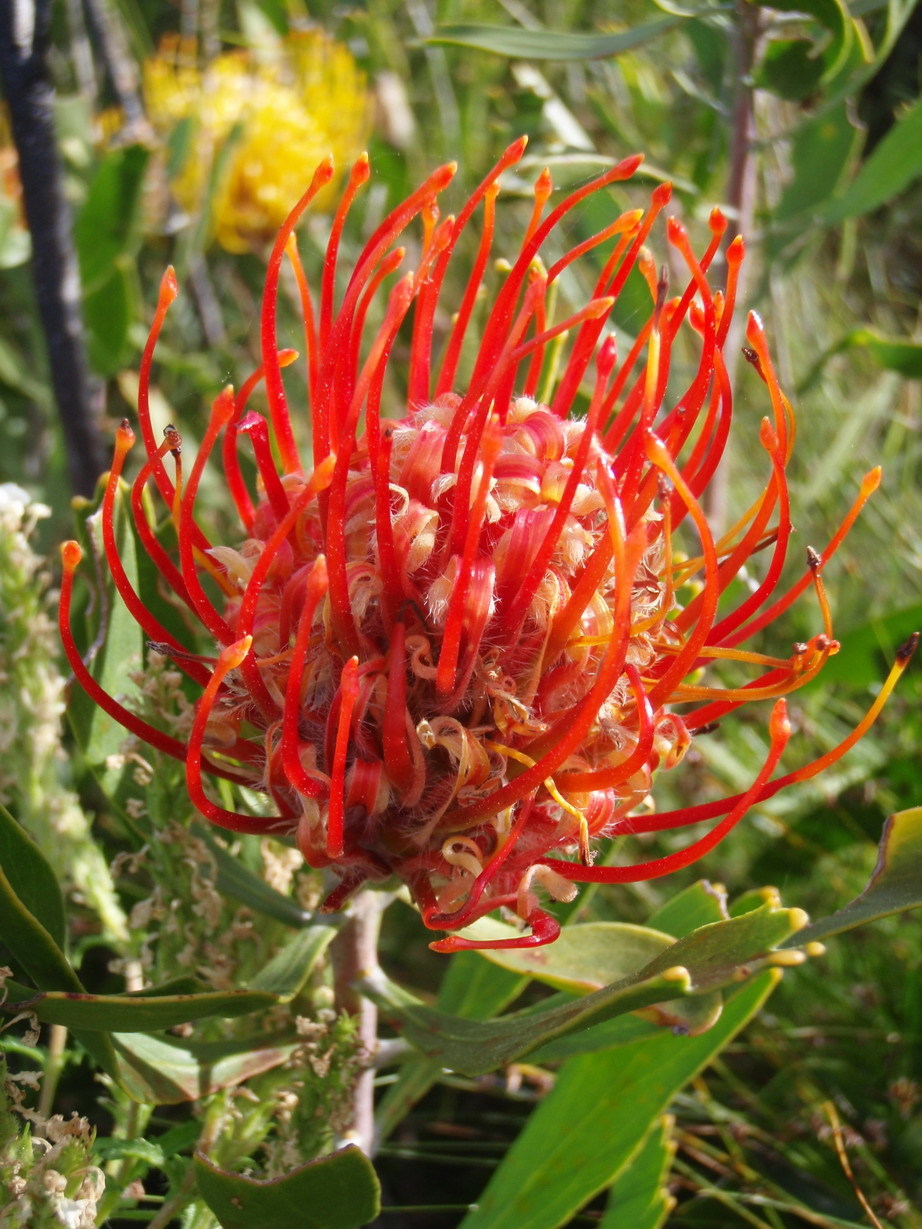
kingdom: Plantae
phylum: Tracheophyta
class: Magnoliopsida
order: Proteales
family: Proteaceae
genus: Leucospermum
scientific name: Leucospermum cuneiforme
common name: Common pincushion
